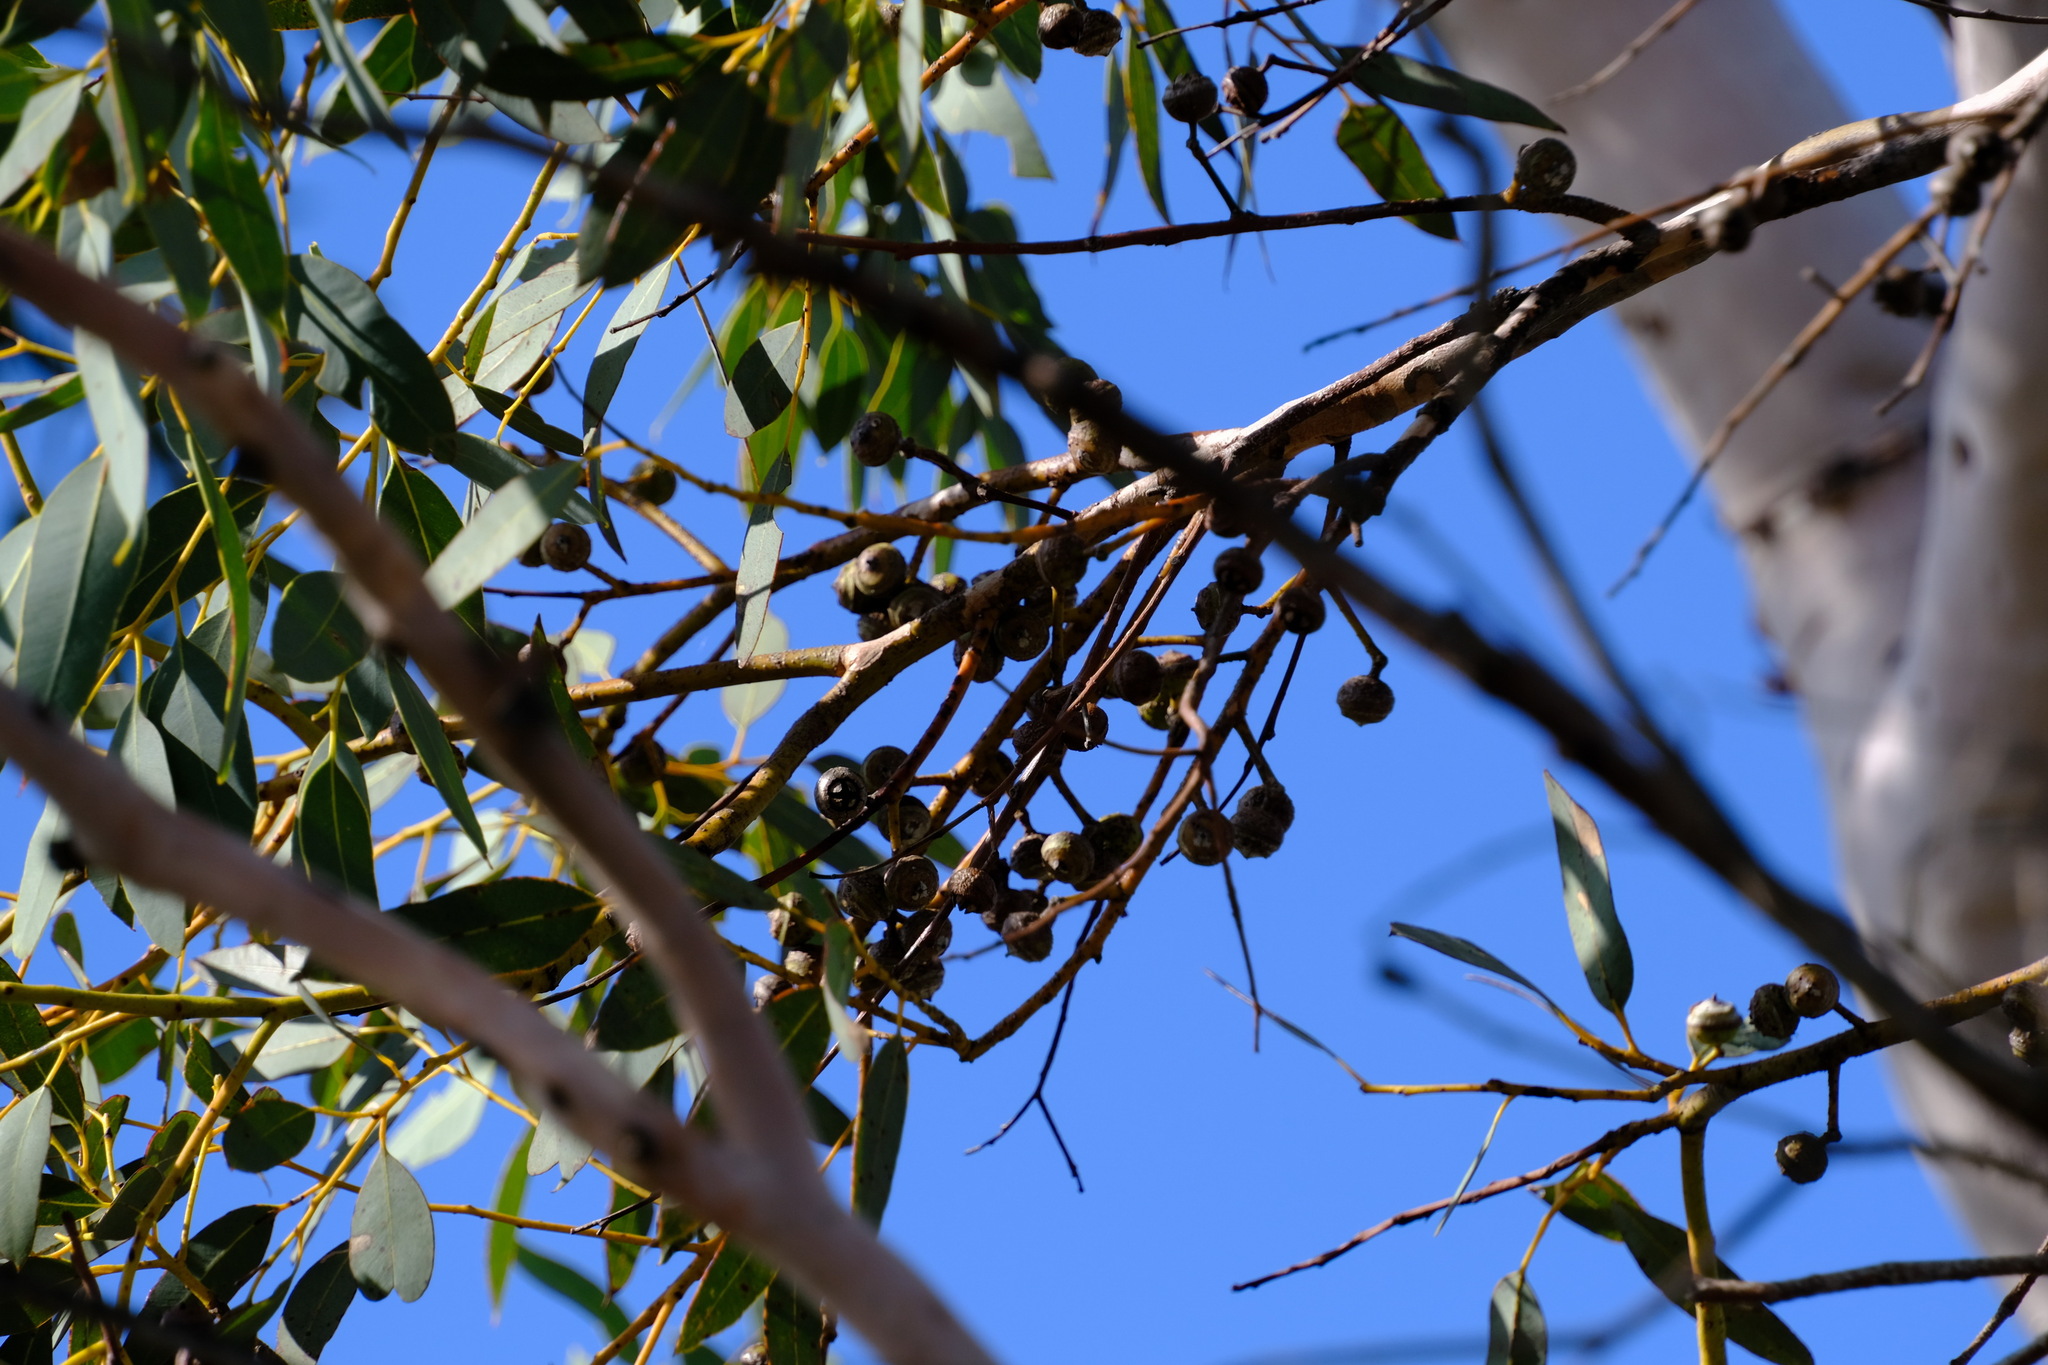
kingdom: Plantae
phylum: Tracheophyta
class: Magnoliopsida
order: Myrtales
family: Myrtaceae
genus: Eucalyptus
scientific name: Eucalyptus drummondii
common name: Drummond's mallee
